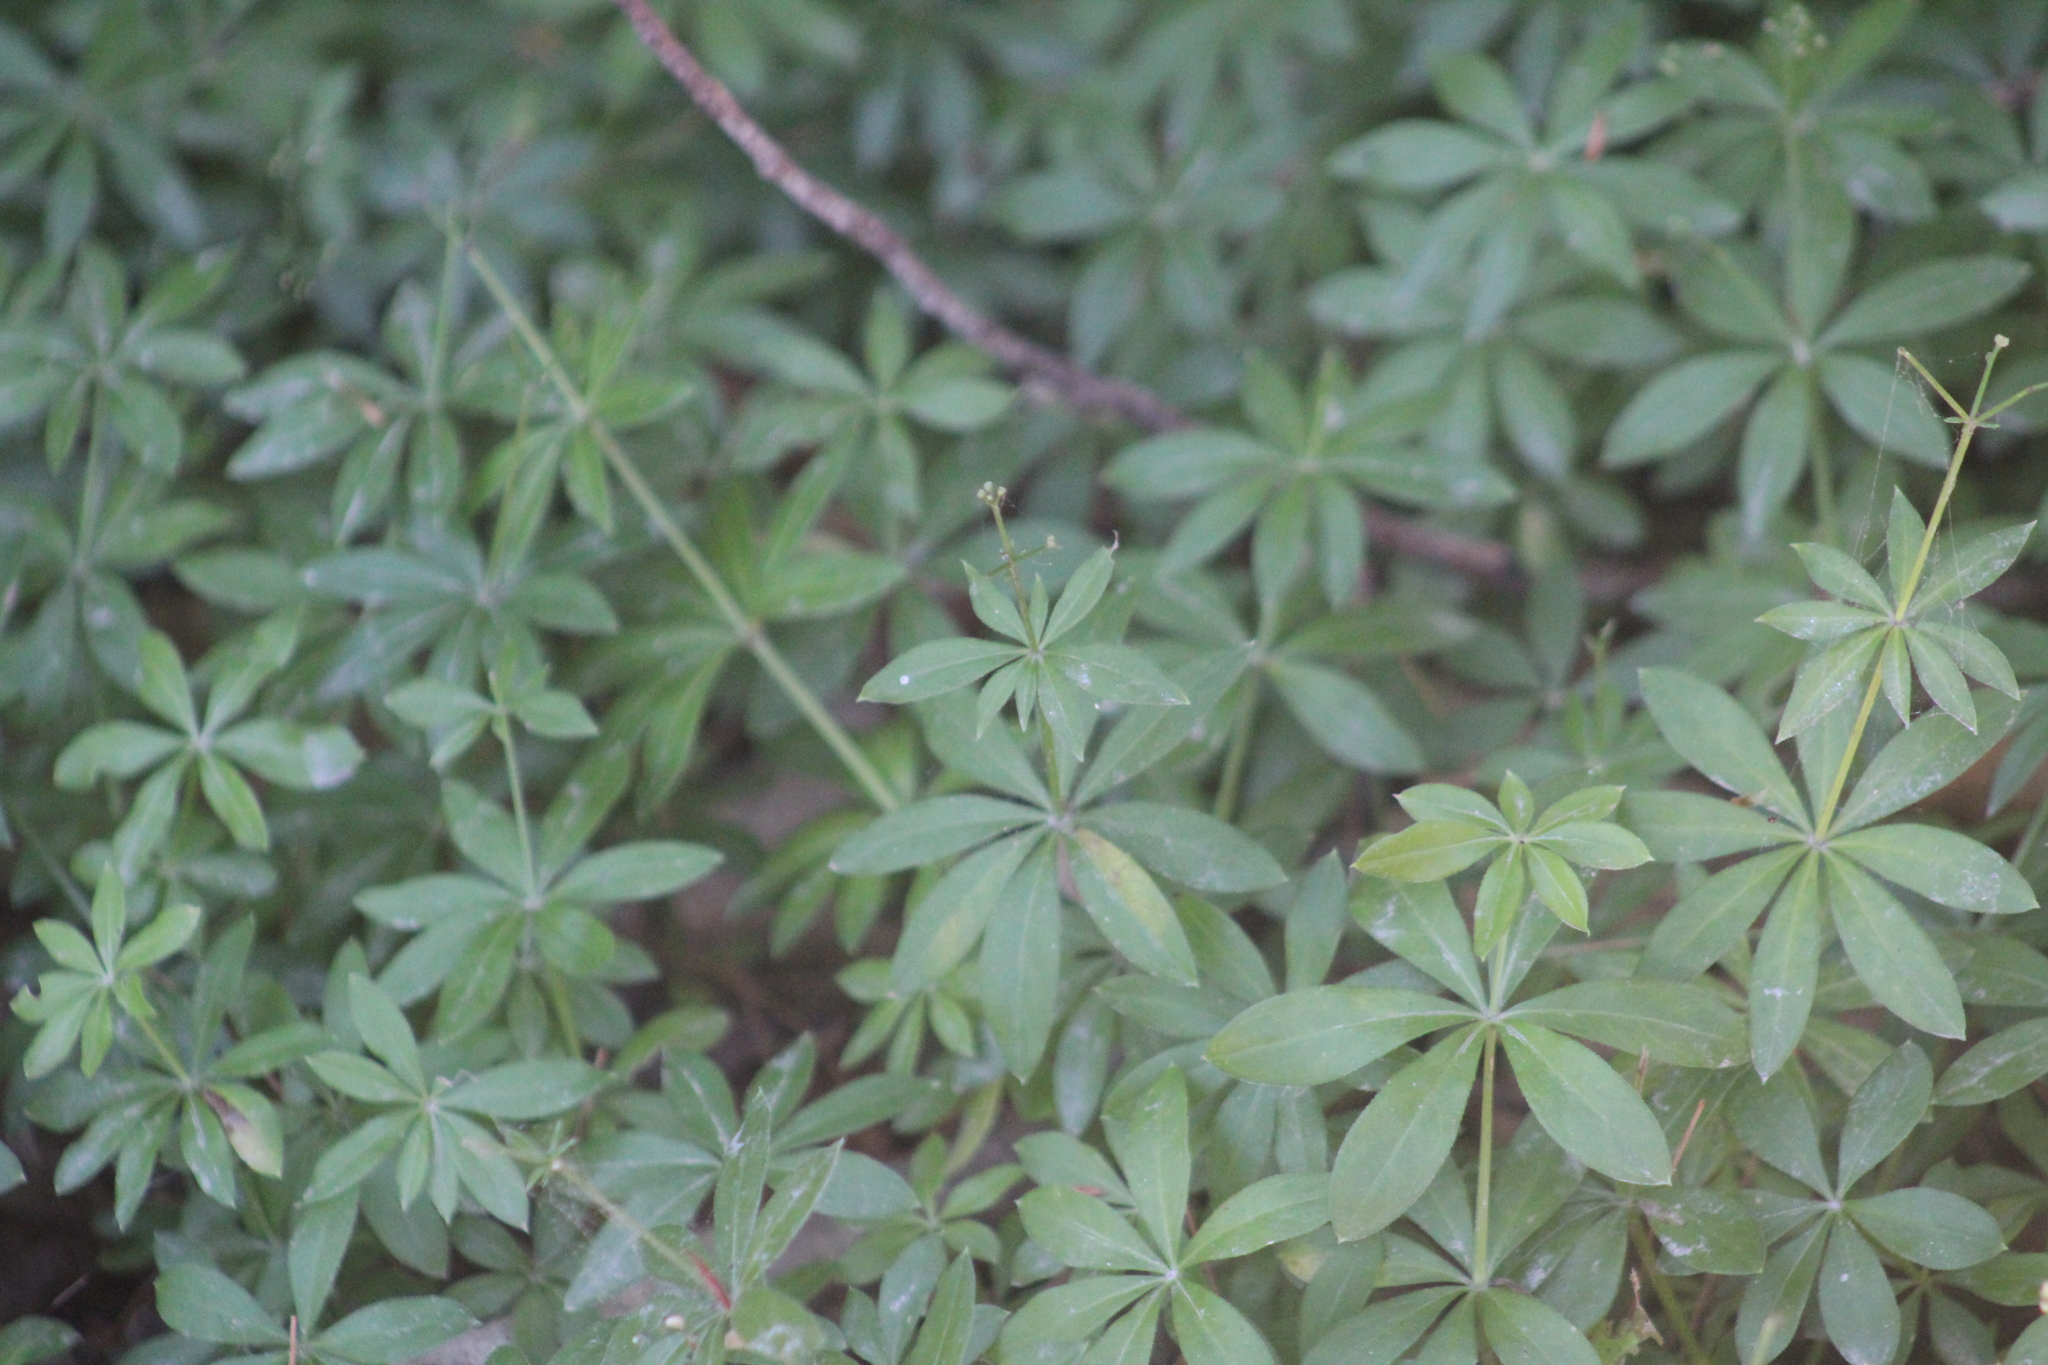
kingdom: Plantae
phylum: Tracheophyta
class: Magnoliopsida
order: Gentianales
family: Rubiaceae
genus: Galium
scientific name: Galium odoratum
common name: Sweet woodruff
